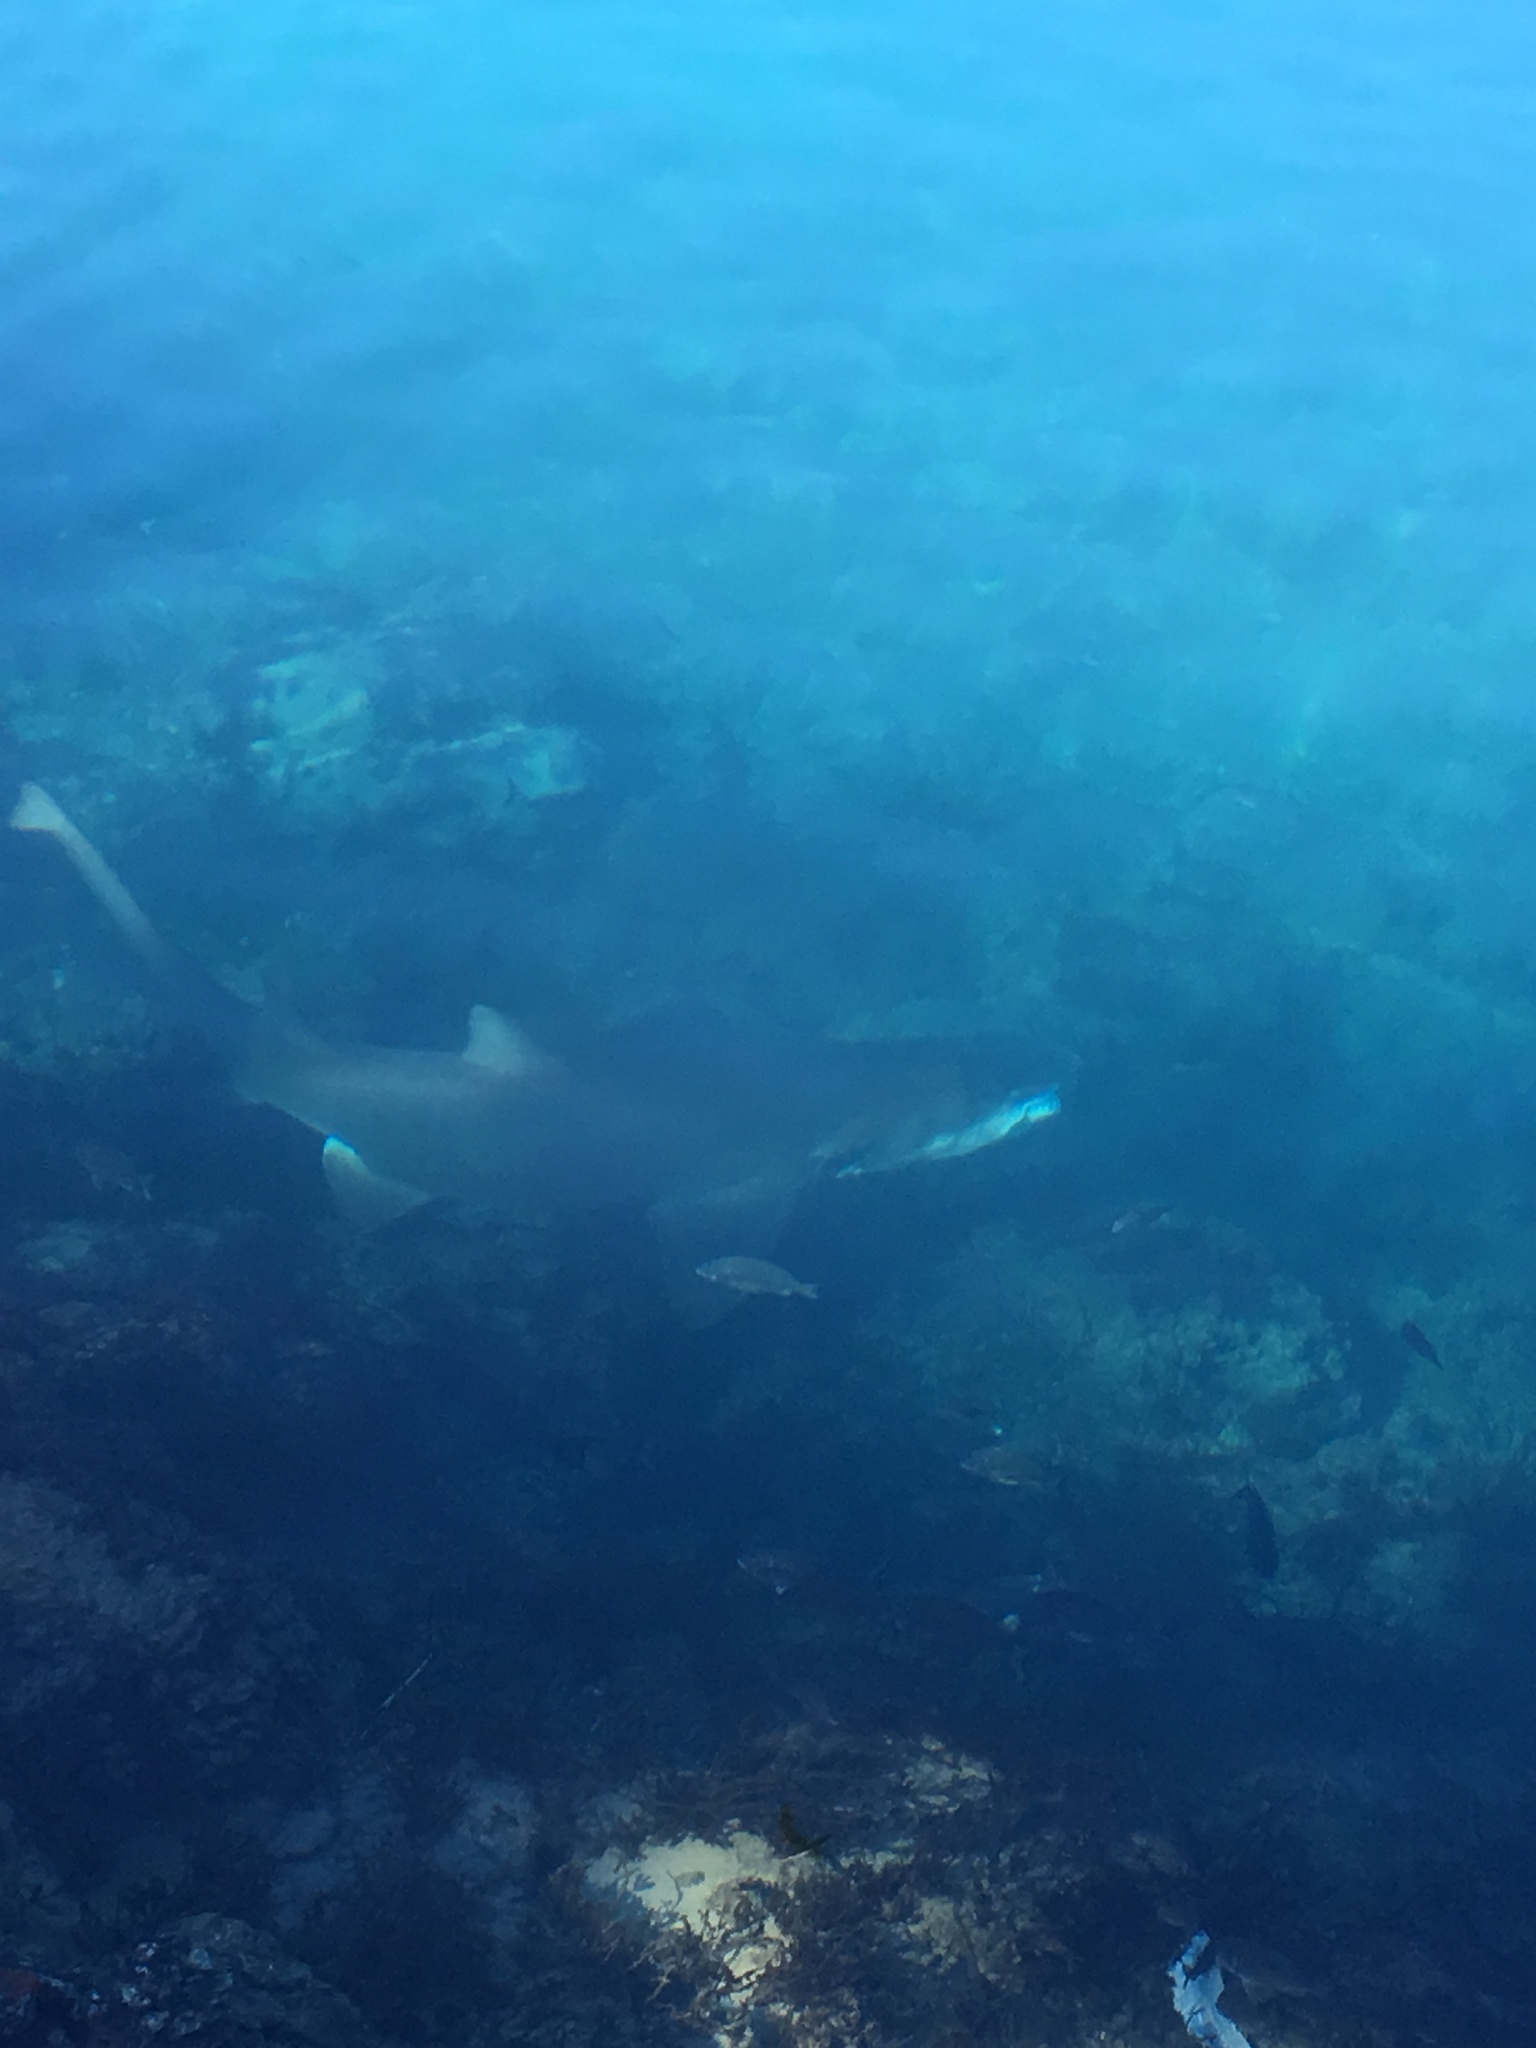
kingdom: Animalia
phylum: Chordata
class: Elasmobranchii
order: Lamniformes
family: Odontaspididae
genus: Carcharias
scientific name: Carcharias taurus
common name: Sand shark
